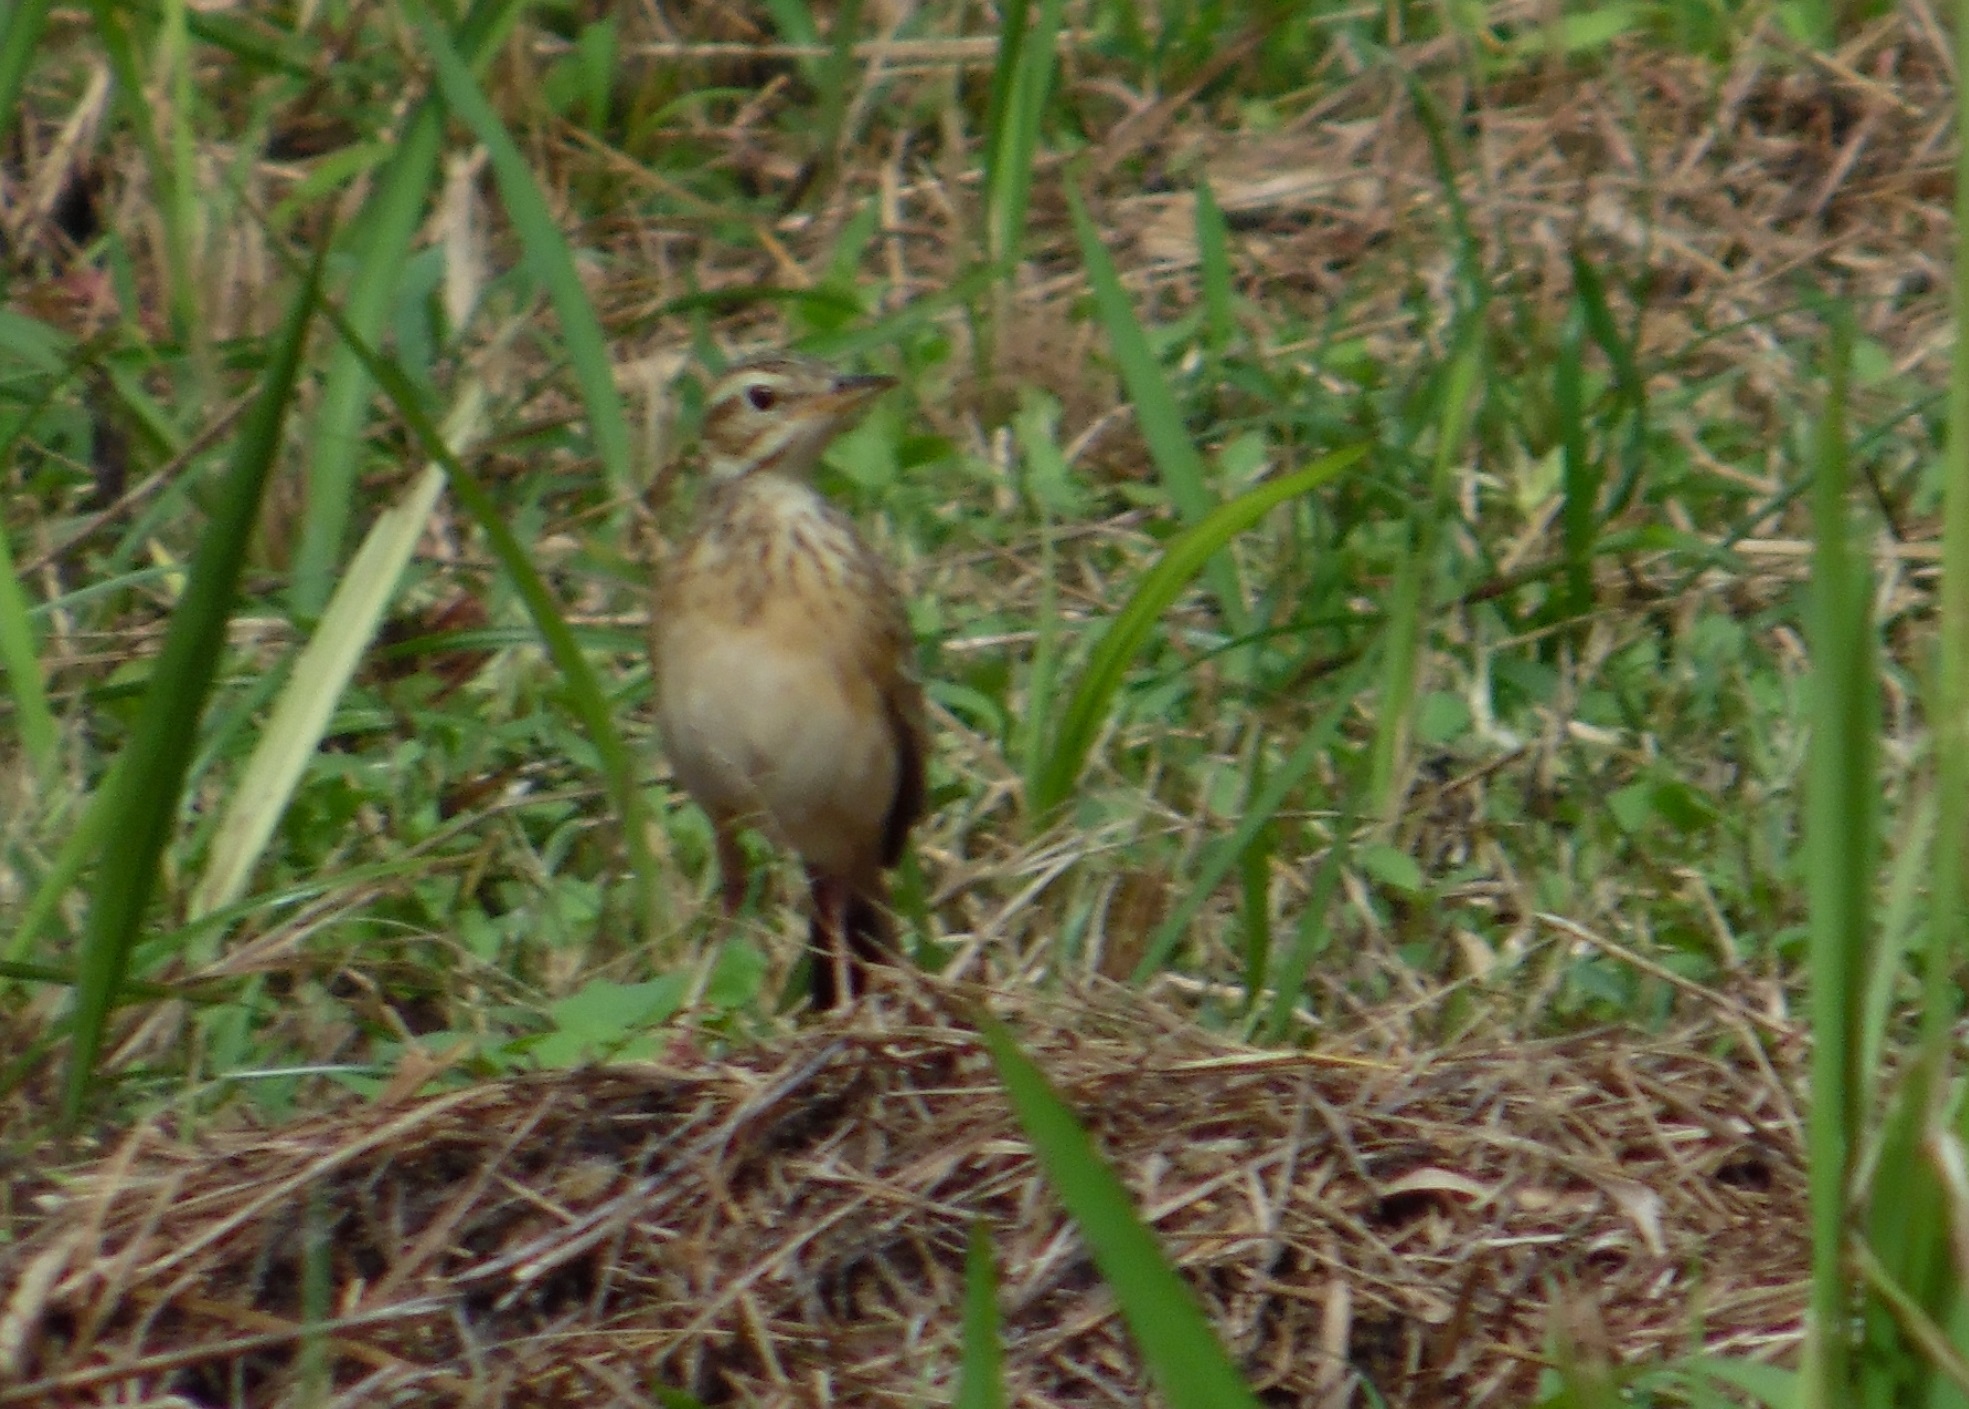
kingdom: Animalia
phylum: Chordata
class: Aves
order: Passeriformes
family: Motacillidae
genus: Anthus
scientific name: Anthus rufulus
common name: Paddyfield pipit
